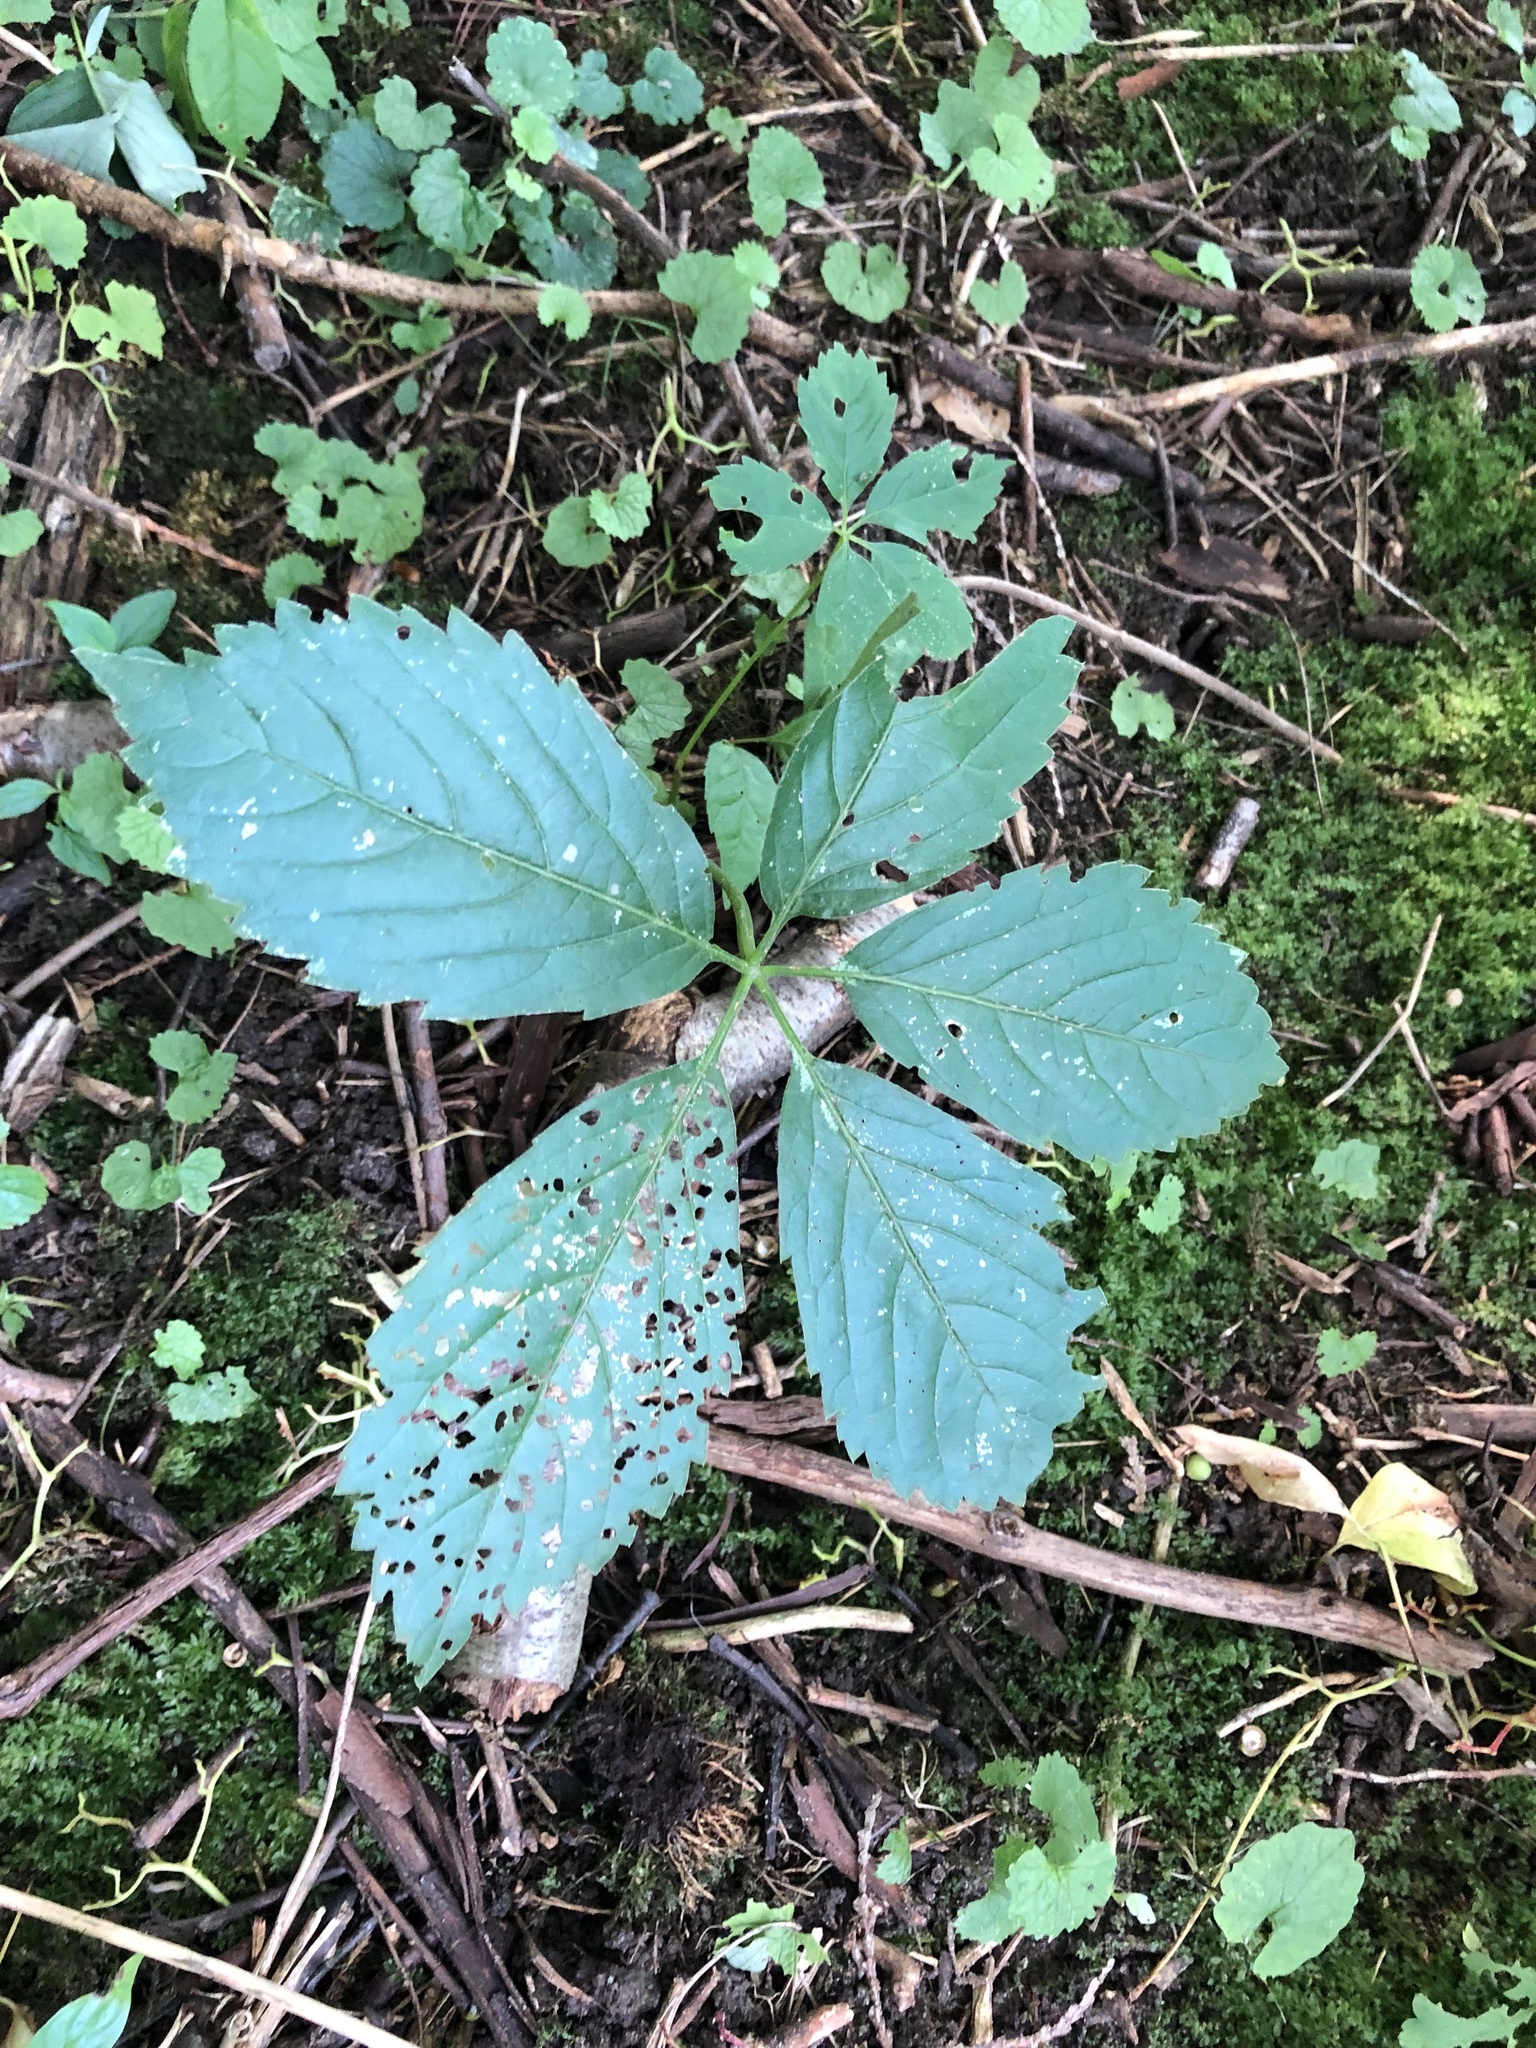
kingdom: Plantae
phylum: Tracheophyta
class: Magnoliopsida
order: Vitales
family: Vitaceae
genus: Parthenocissus
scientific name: Parthenocissus quinquefolia
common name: Virginia-creeper
